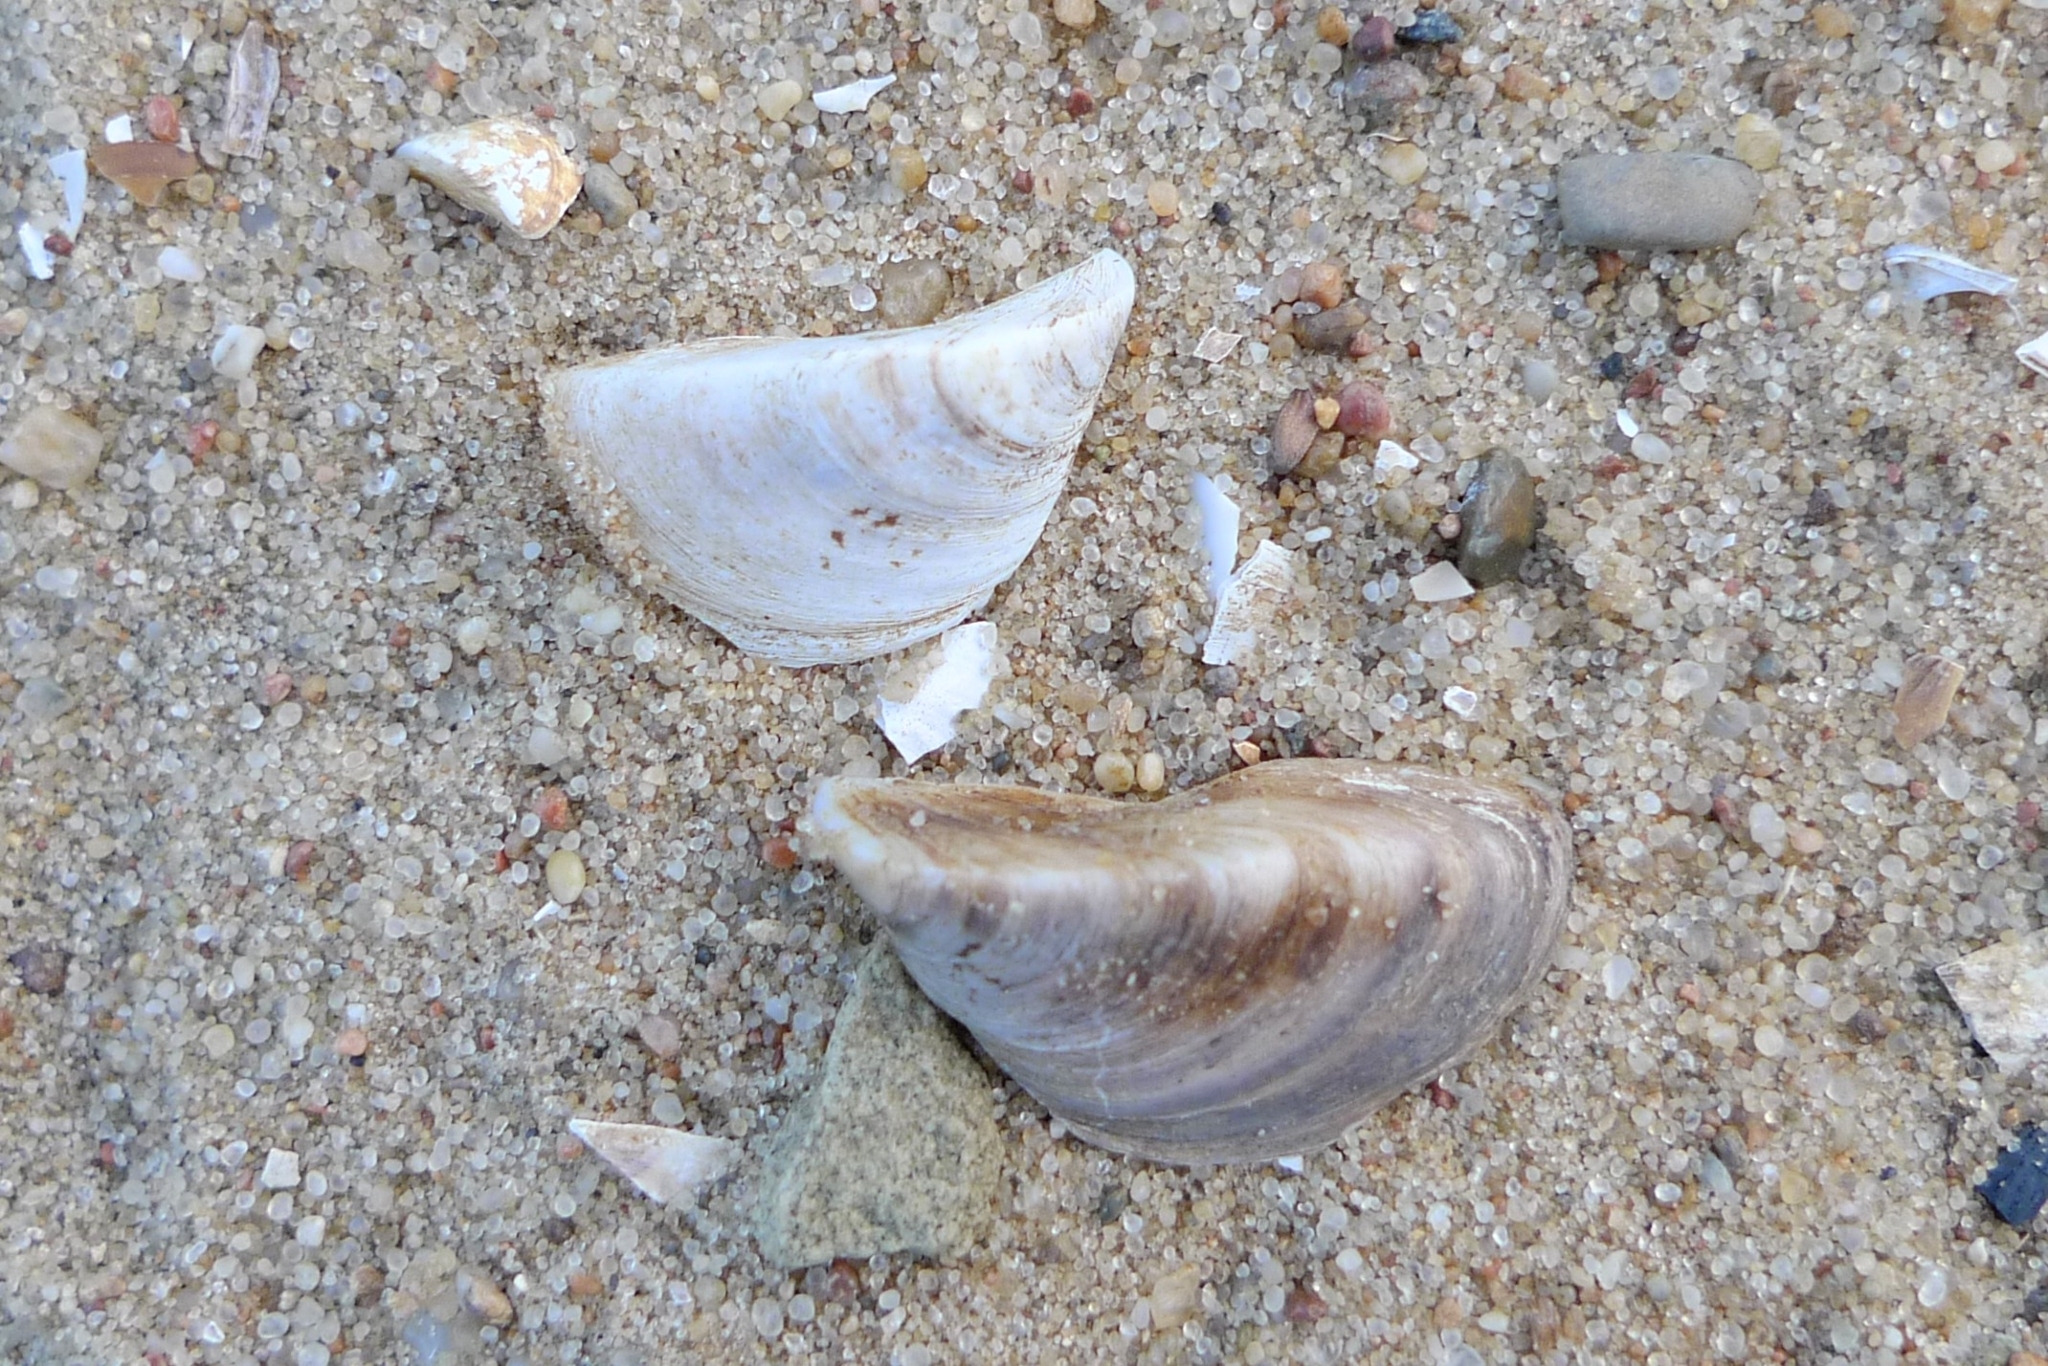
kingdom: Animalia
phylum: Mollusca
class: Bivalvia
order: Myida
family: Dreissenidae
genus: Dreissena
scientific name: Dreissena polymorpha
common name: Zebra mussel
